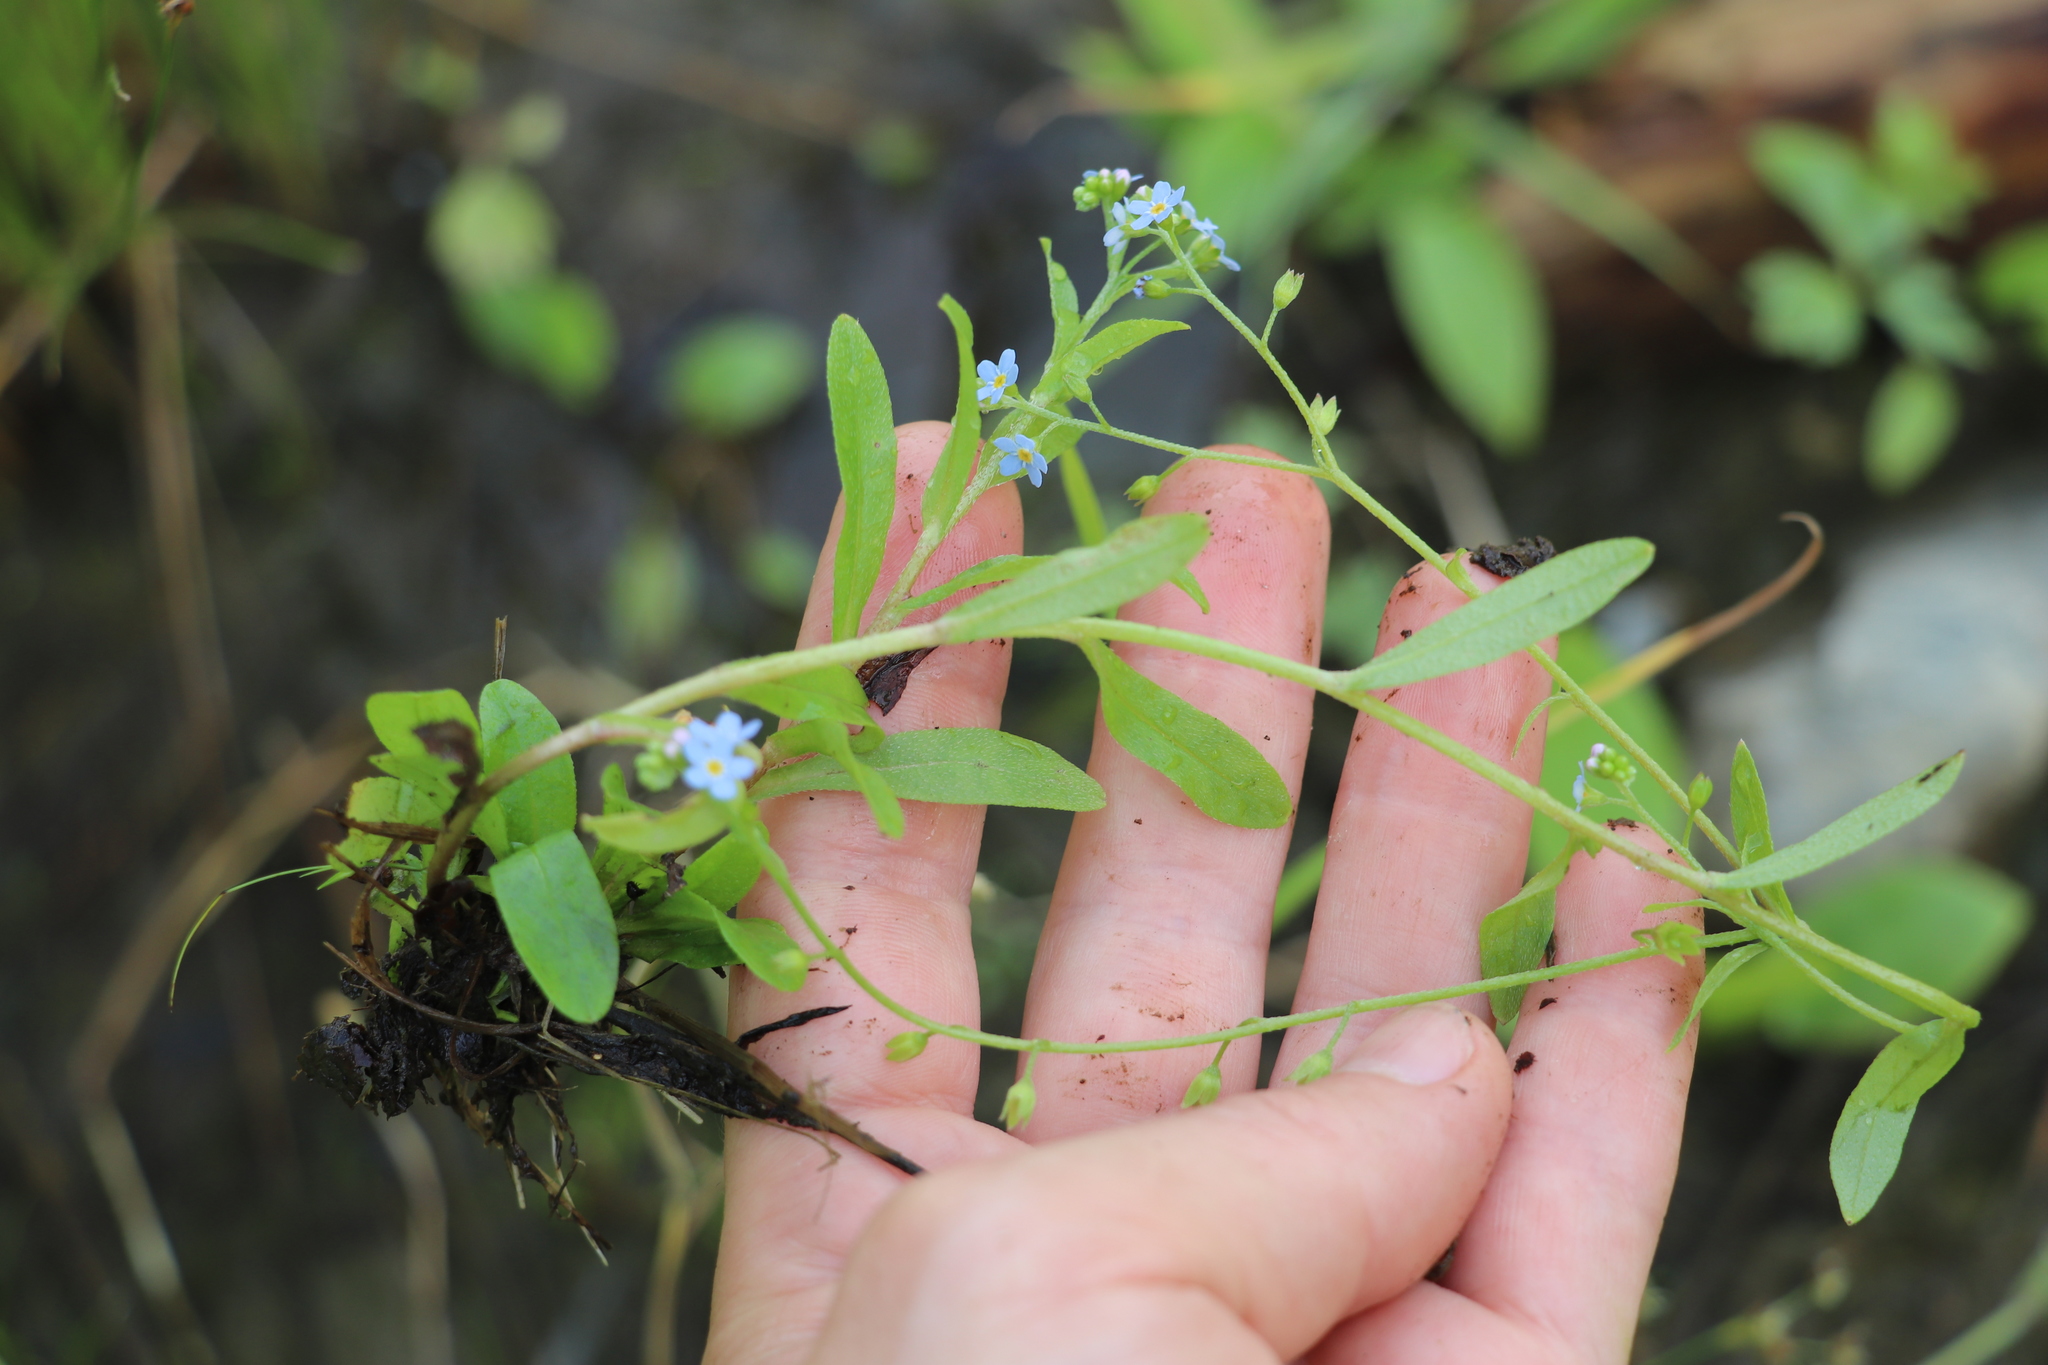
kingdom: Plantae
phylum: Tracheophyta
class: Magnoliopsida
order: Boraginales
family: Boraginaceae
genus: Myosotis
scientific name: Myosotis scorpioides
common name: Water forget-me-not
